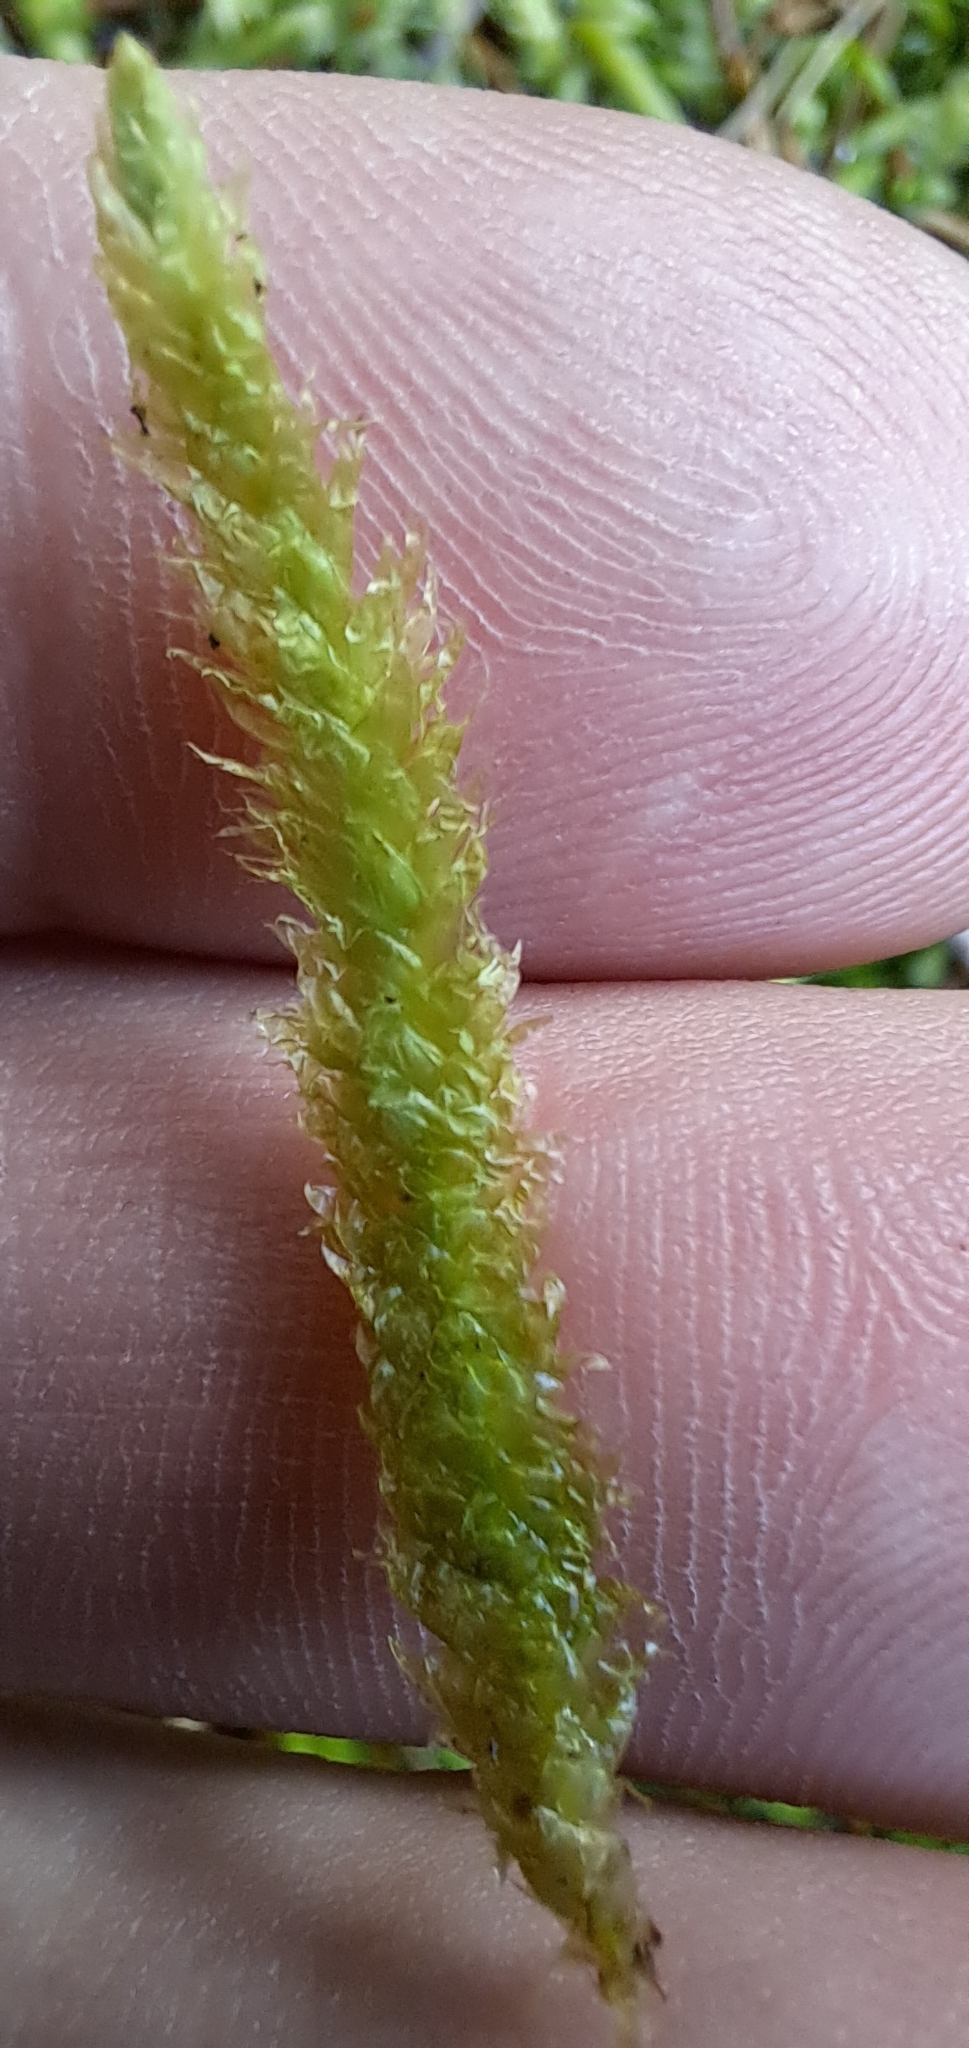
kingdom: Plantae
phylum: Bryophyta
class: Bryopsida
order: Hypnales
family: Plagiotheciaceae
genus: Plagiothecium
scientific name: Plagiothecium undulatum
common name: Waved silk-moss
